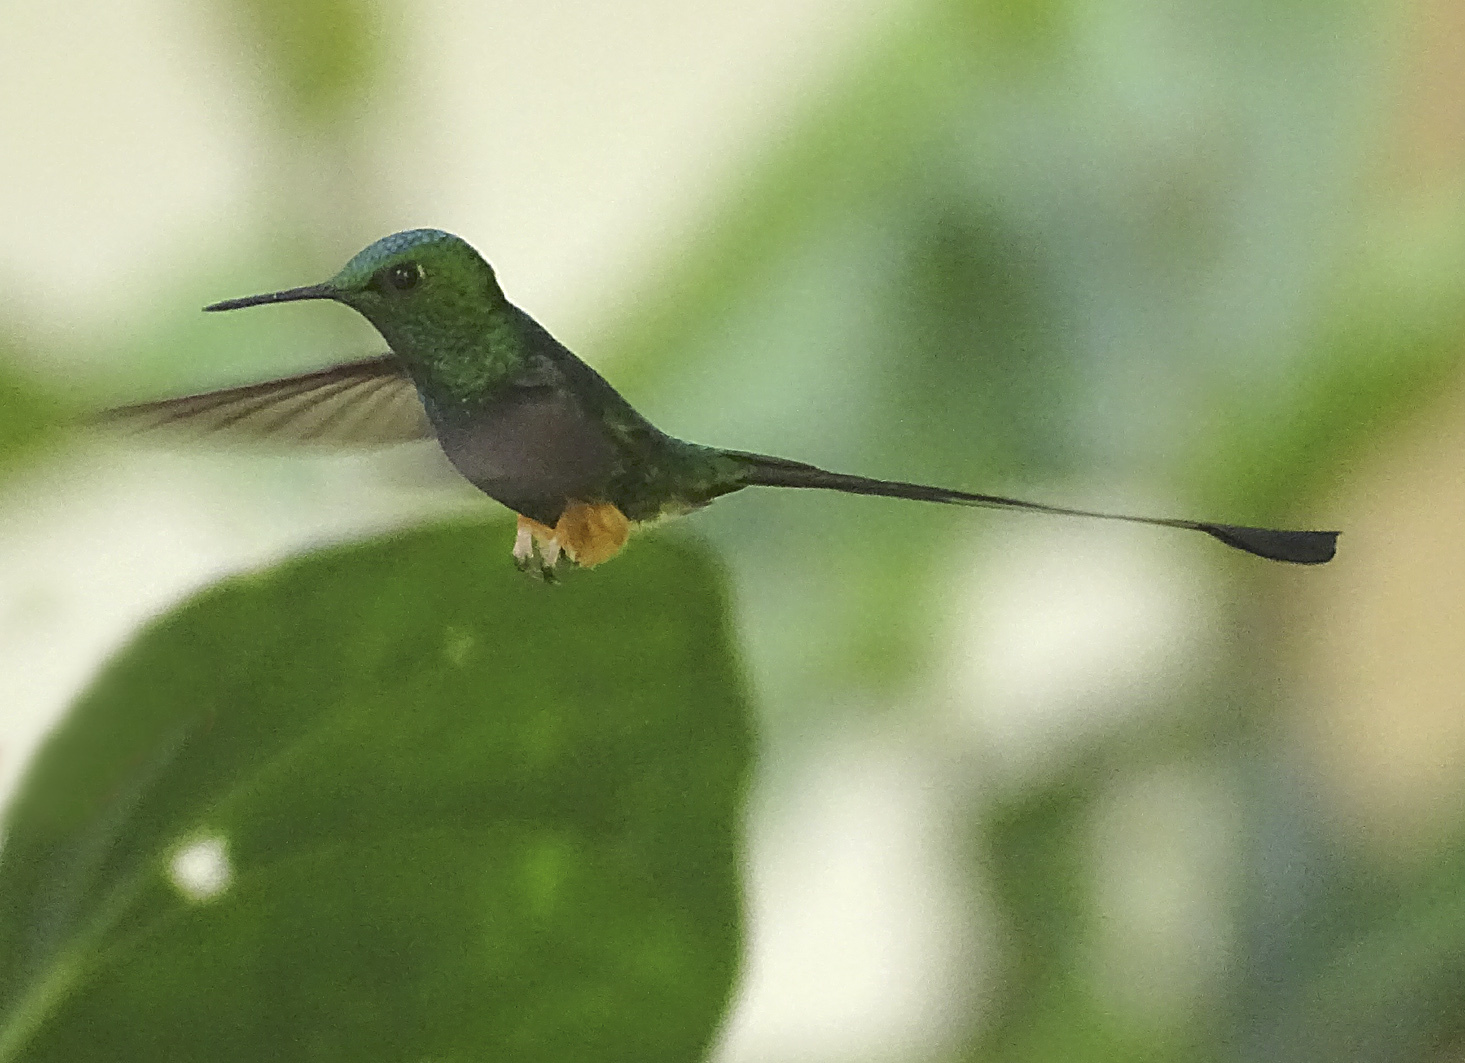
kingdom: Animalia
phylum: Chordata
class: Aves
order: Apodiformes
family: Trochilidae
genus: Ocreatus
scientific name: Ocreatus peruanus
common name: Peruvian racket-tail
